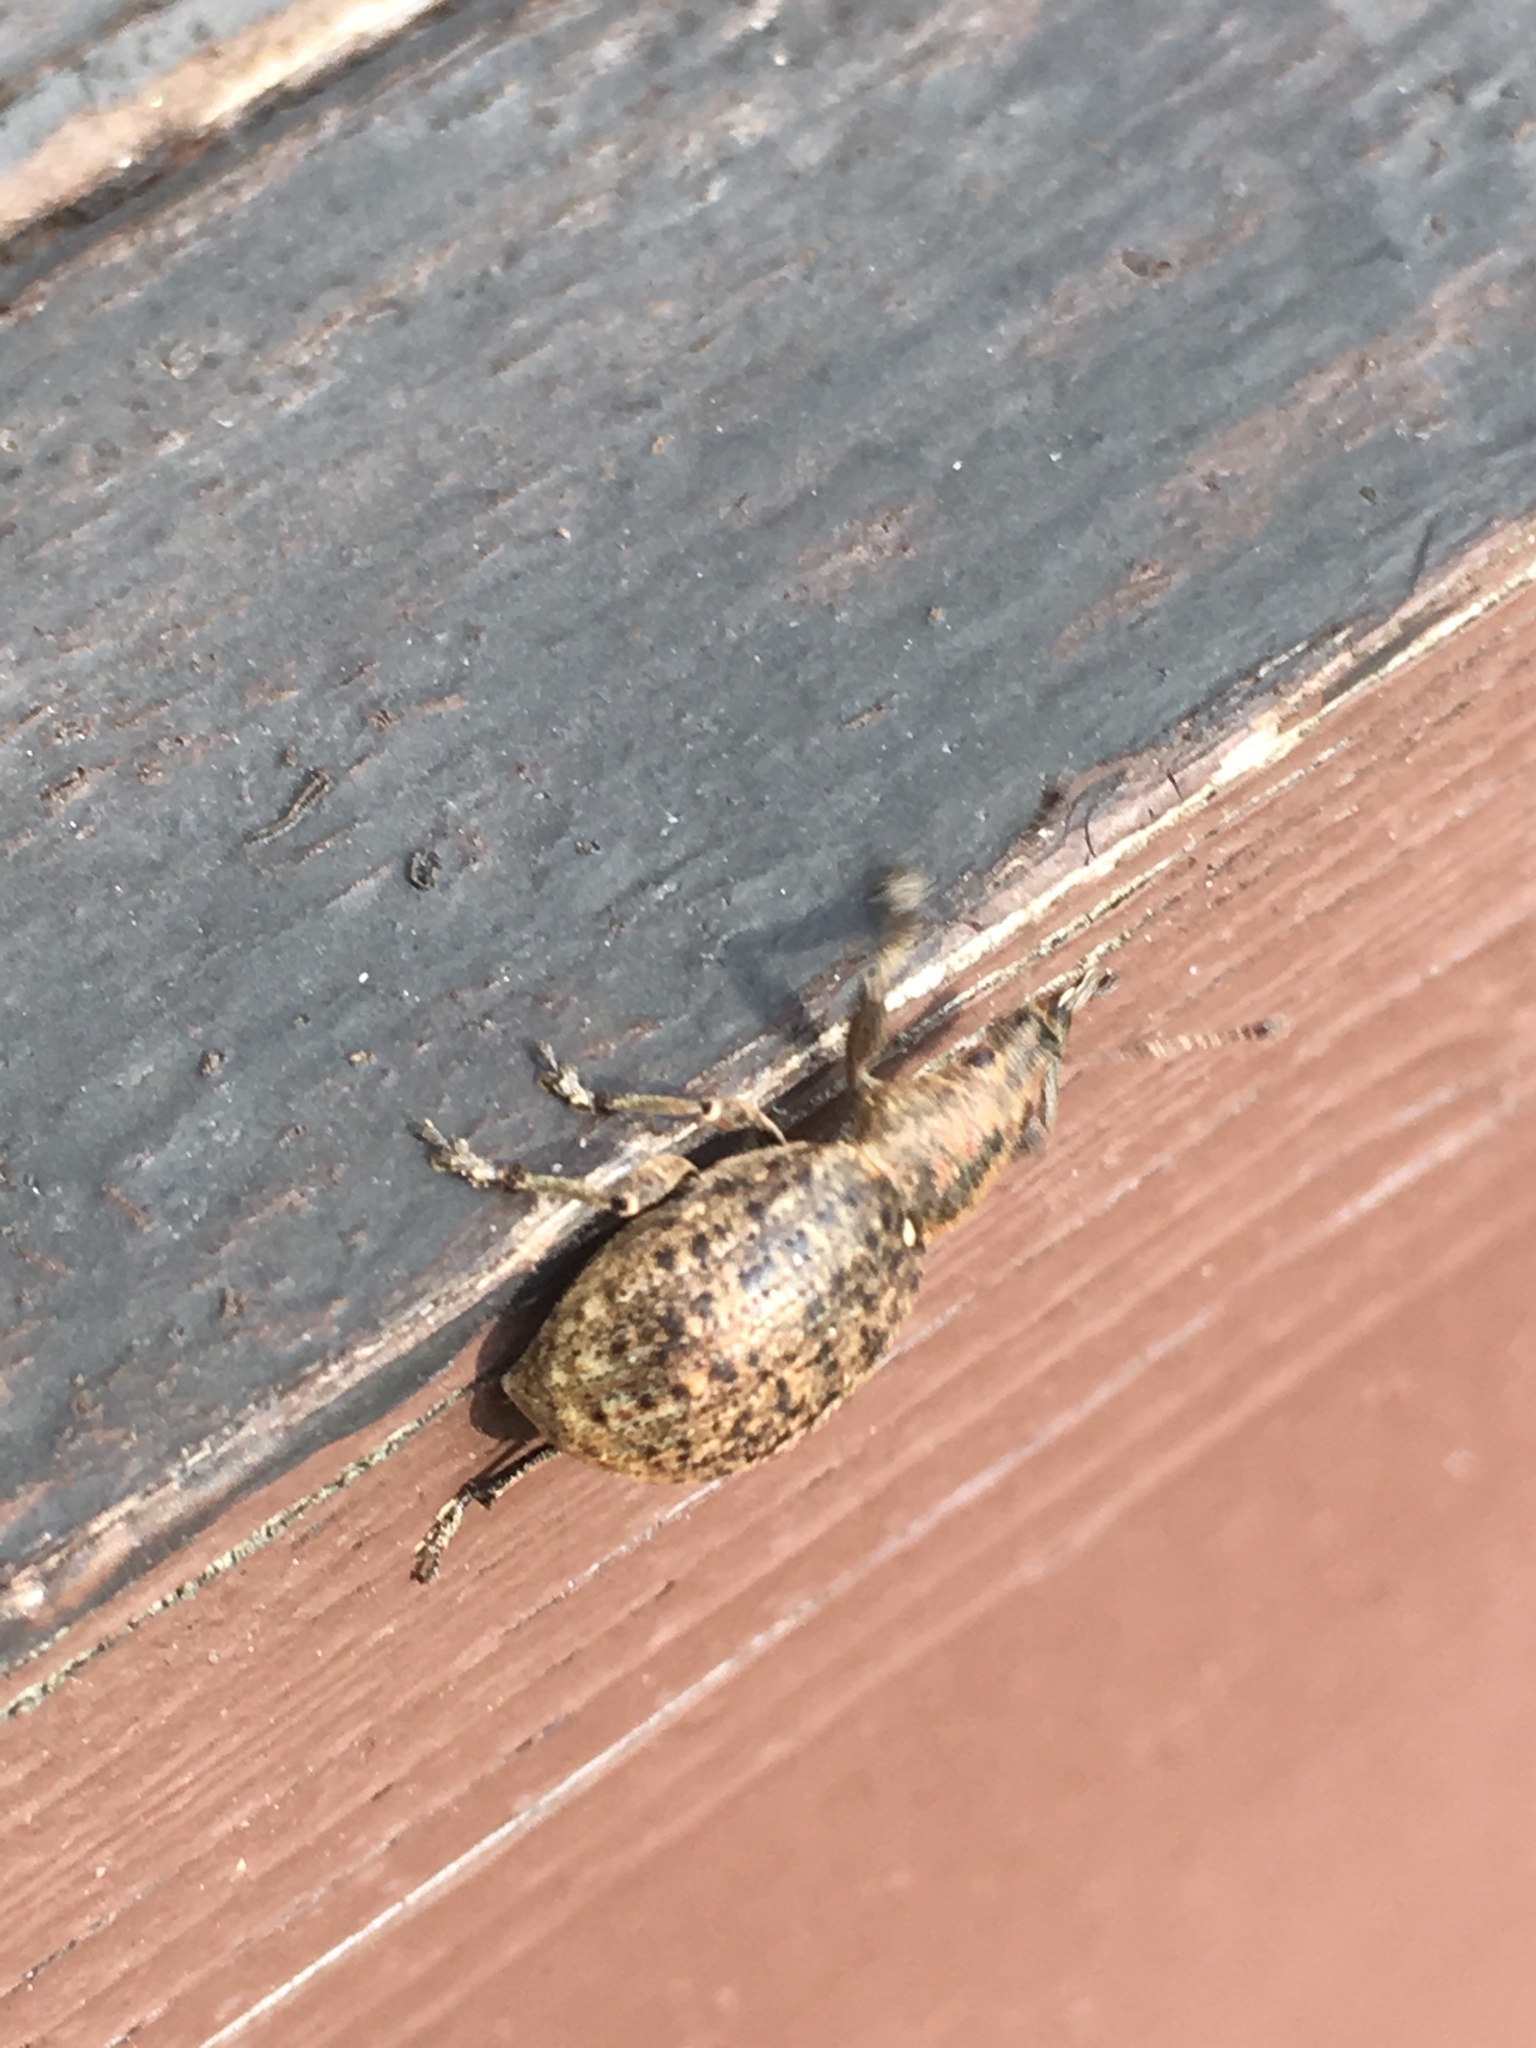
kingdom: Animalia
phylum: Arthropoda
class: Insecta
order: Coleoptera
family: Curculionidae
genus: Liophloeus
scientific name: Liophloeus tessulatus
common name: Weevil
